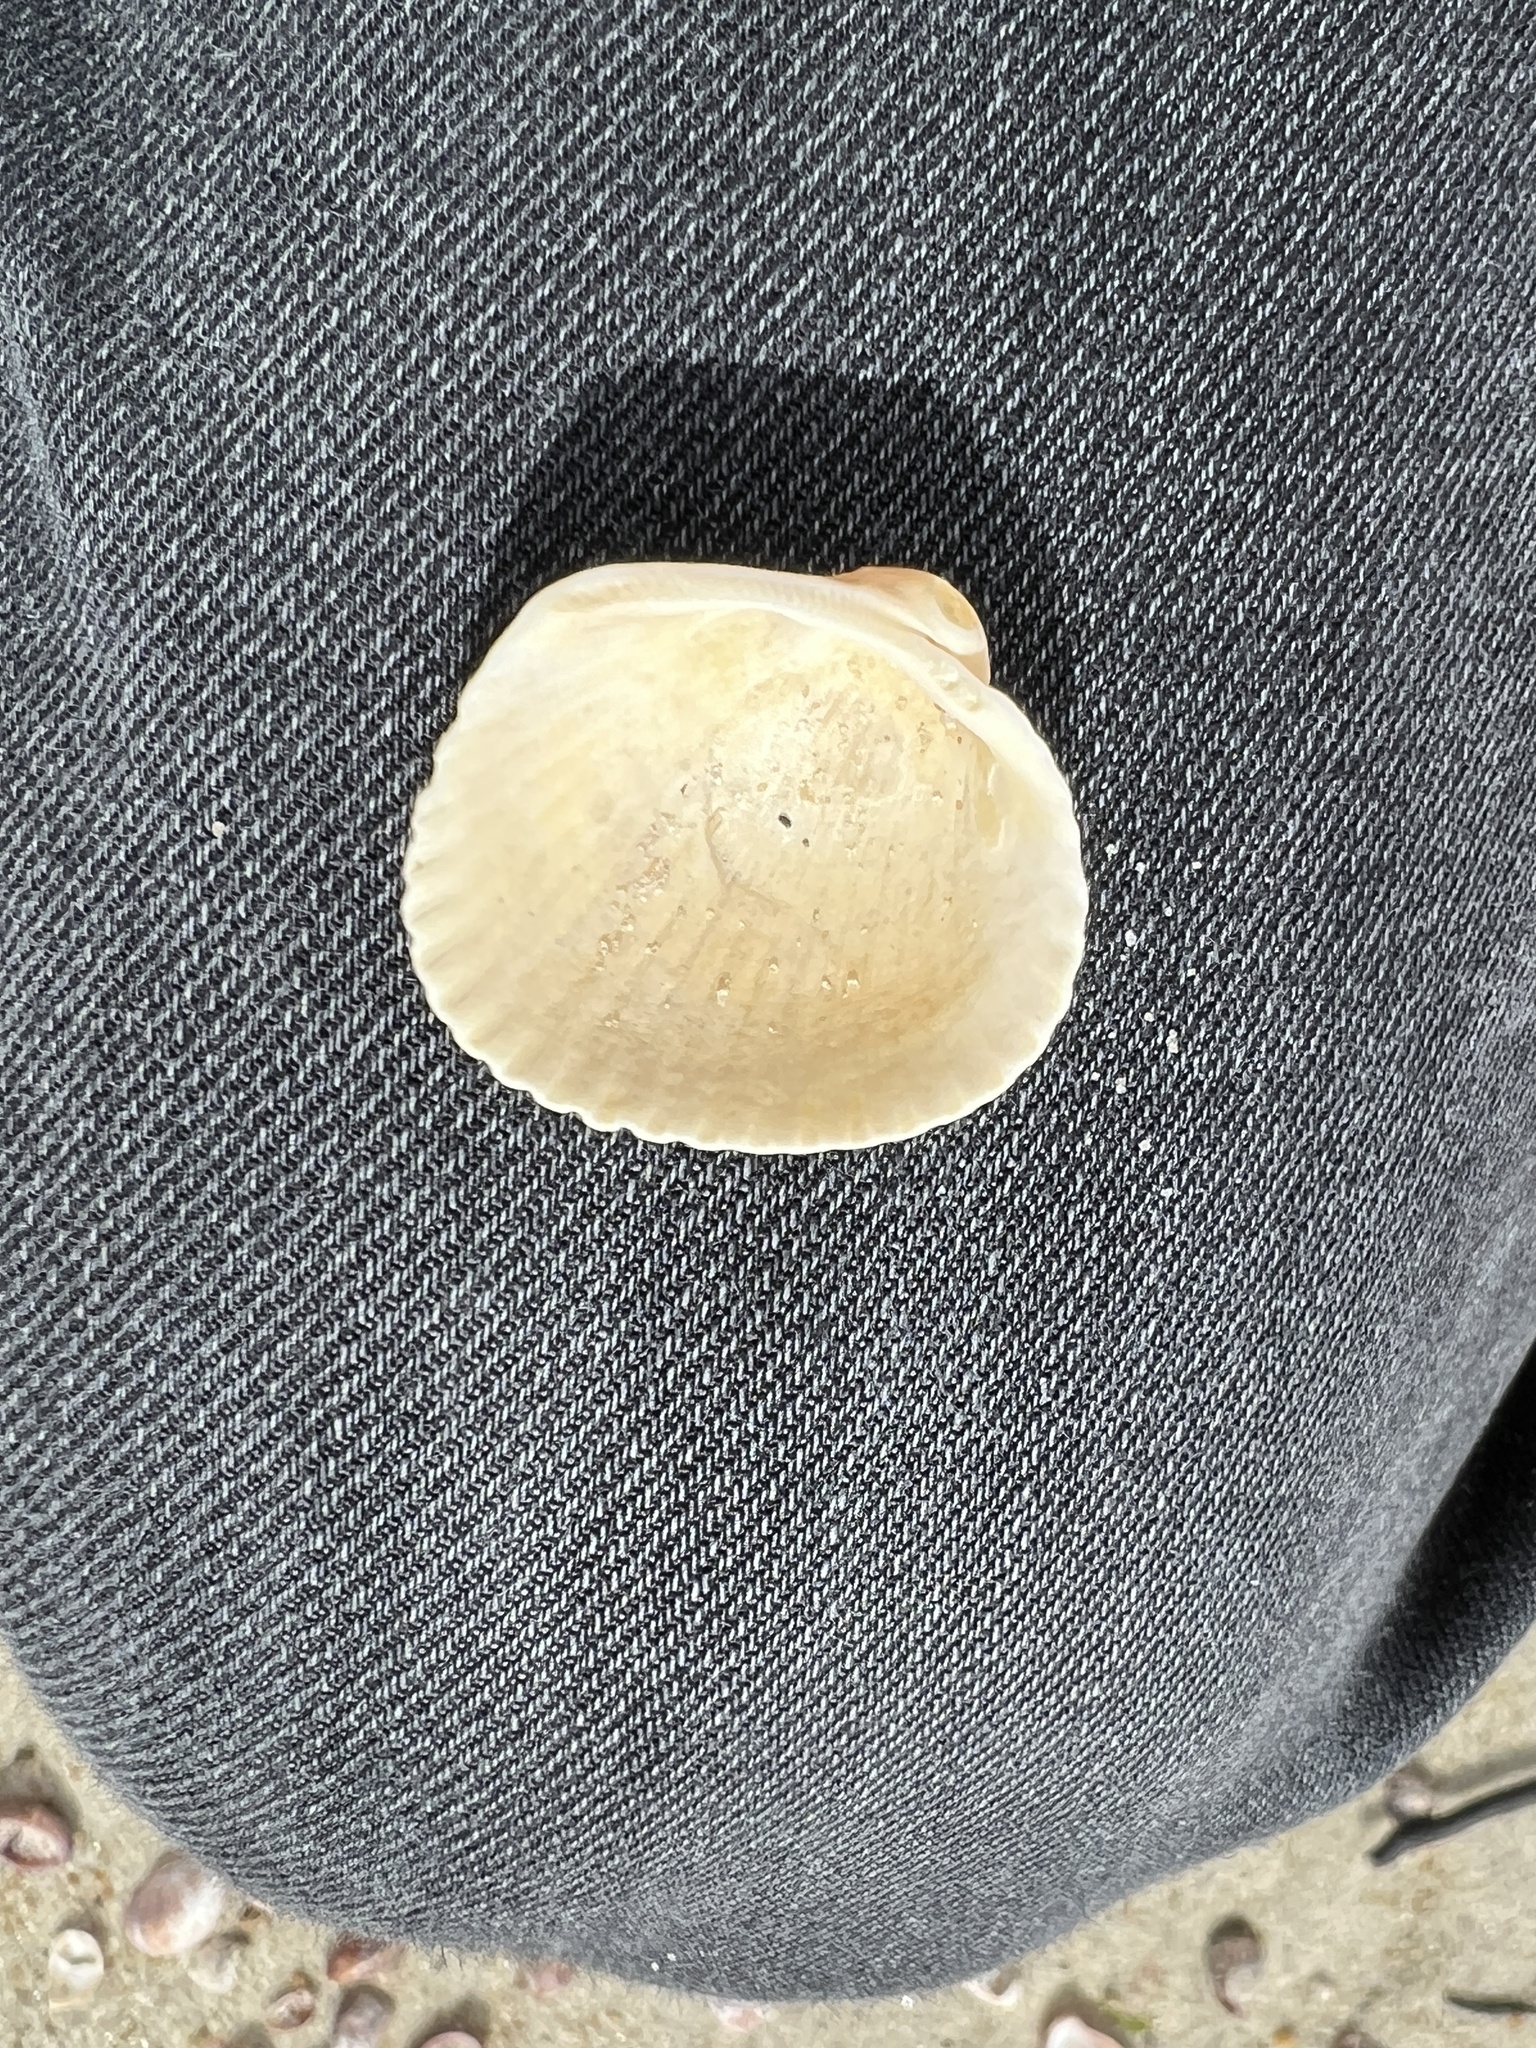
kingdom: Animalia
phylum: Mollusca
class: Bivalvia
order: Arcida
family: Arcidae
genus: Lunarca
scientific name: Lunarca ovalis
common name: Blood ark
